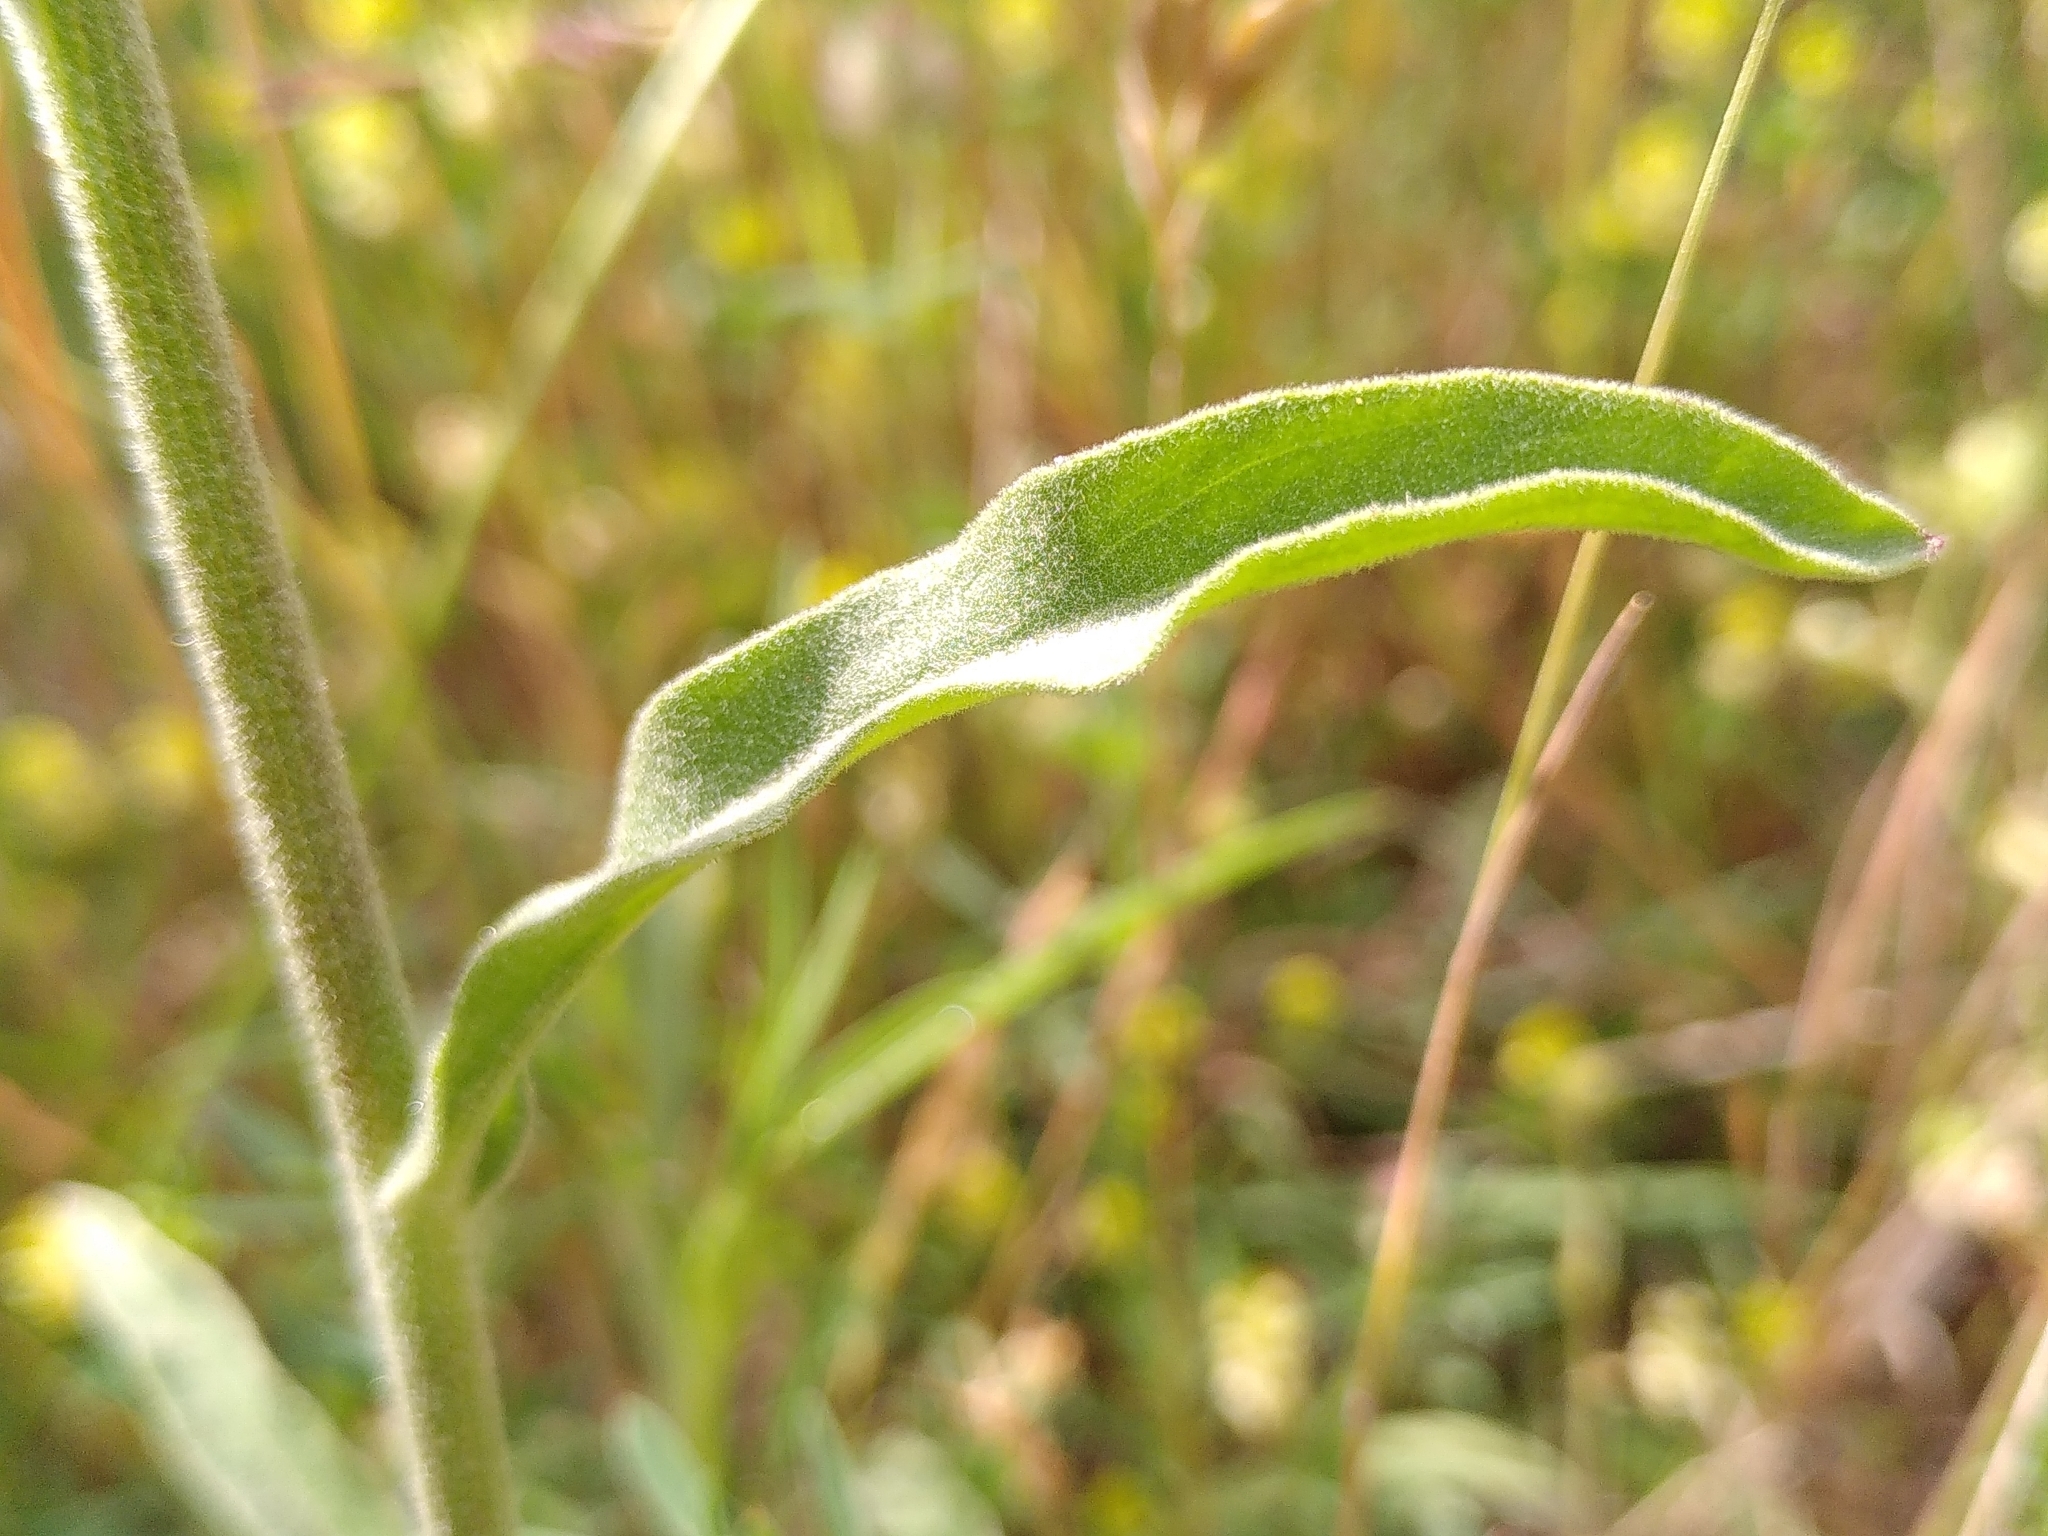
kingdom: Plantae
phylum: Tracheophyta
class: Magnoliopsida
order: Asterales
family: Asteraceae
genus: Andryala
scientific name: Andryala integrifolia
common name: Common andryala
